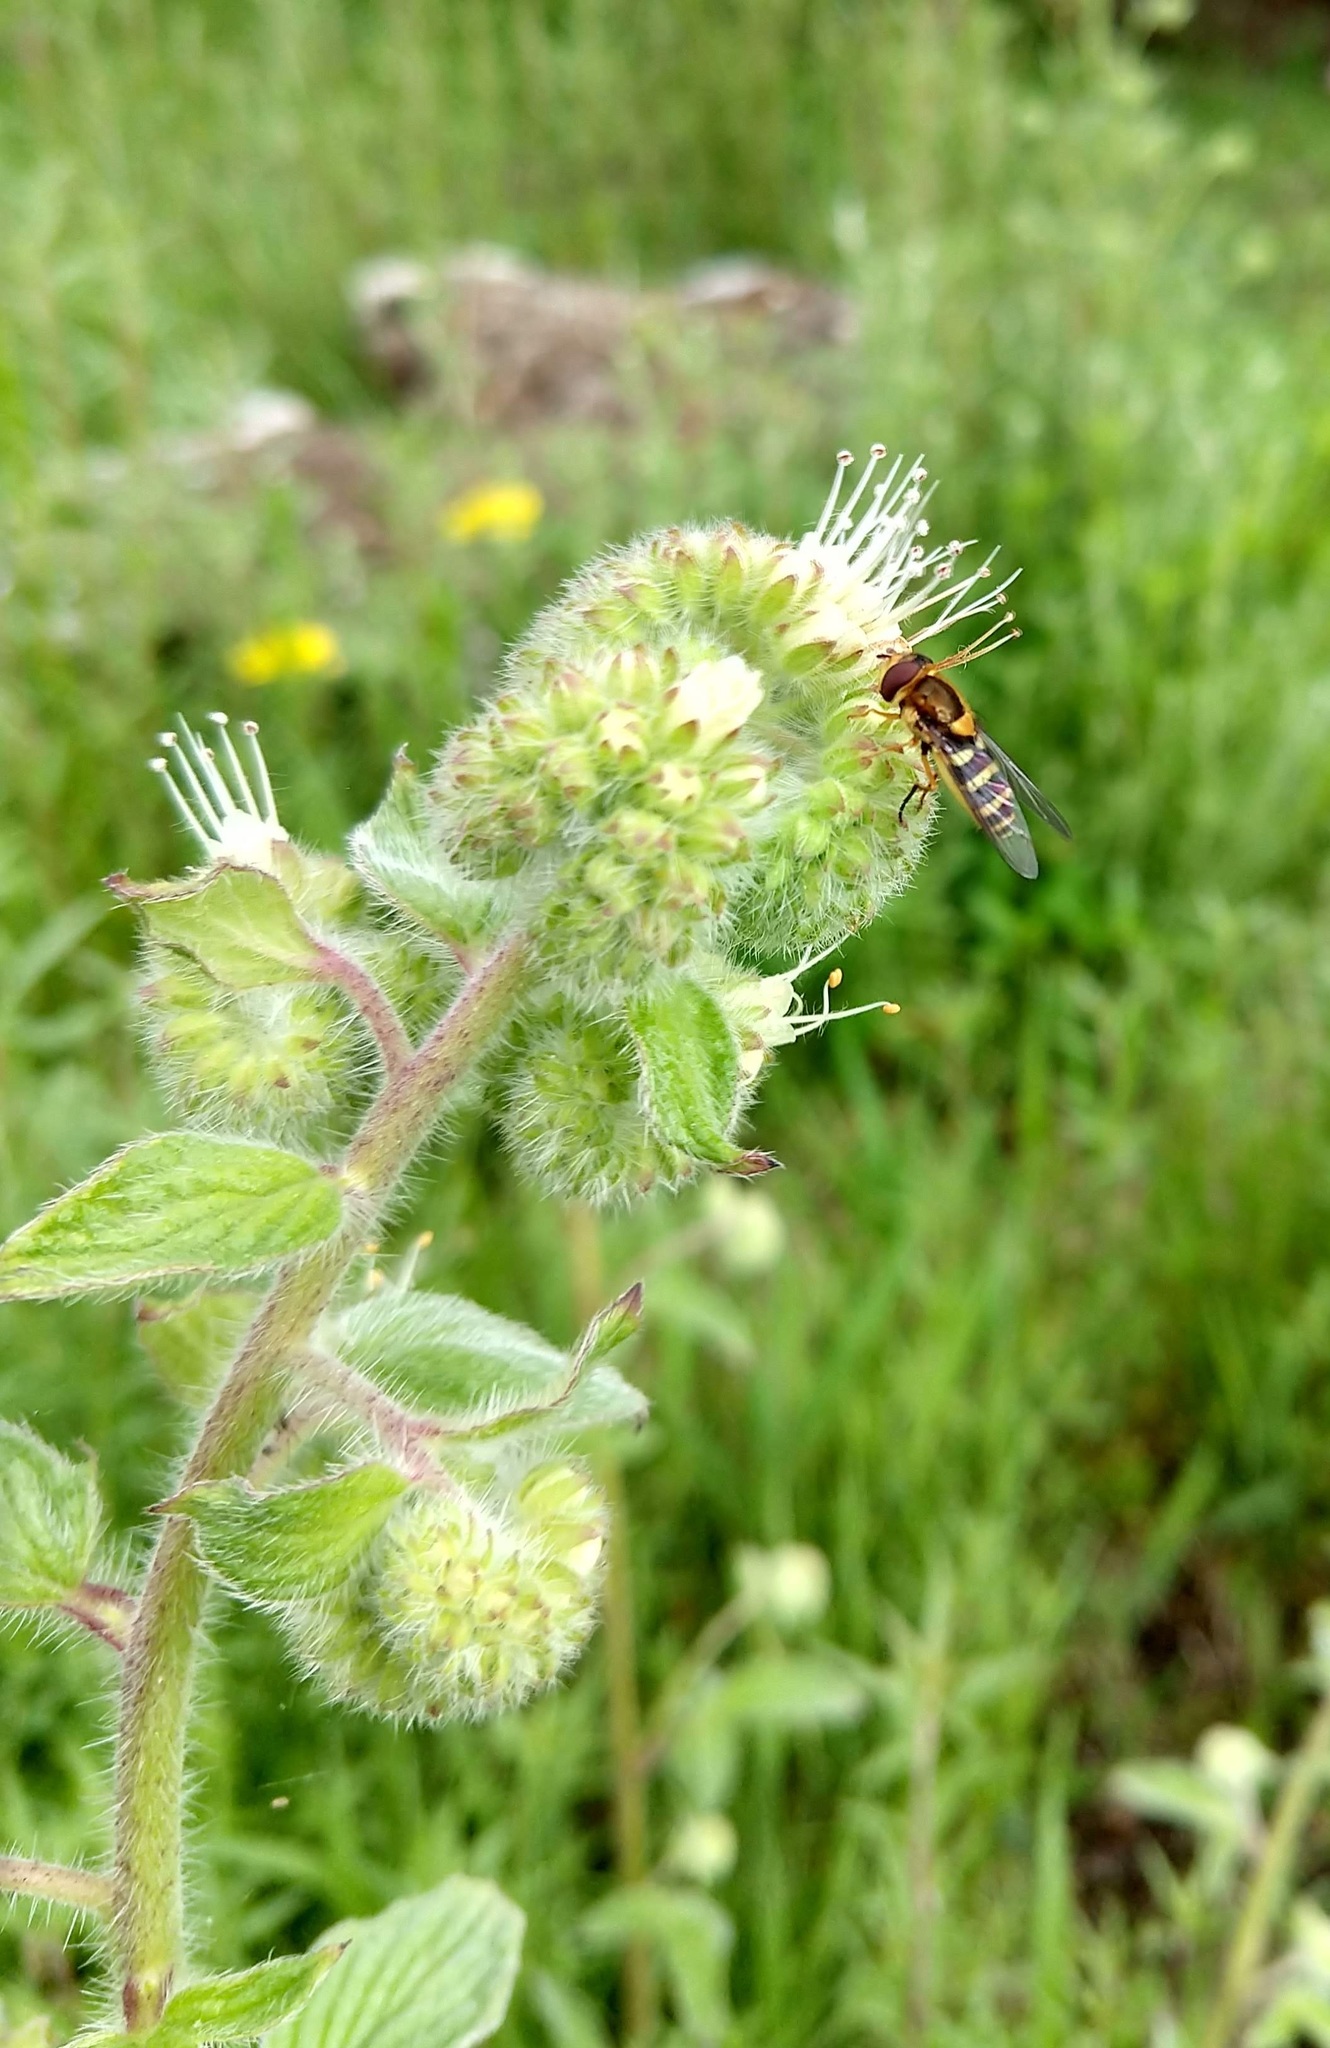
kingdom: Animalia
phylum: Arthropoda
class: Insecta
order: Diptera
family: Syrphidae
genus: Syrphus
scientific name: Syrphus opinator
